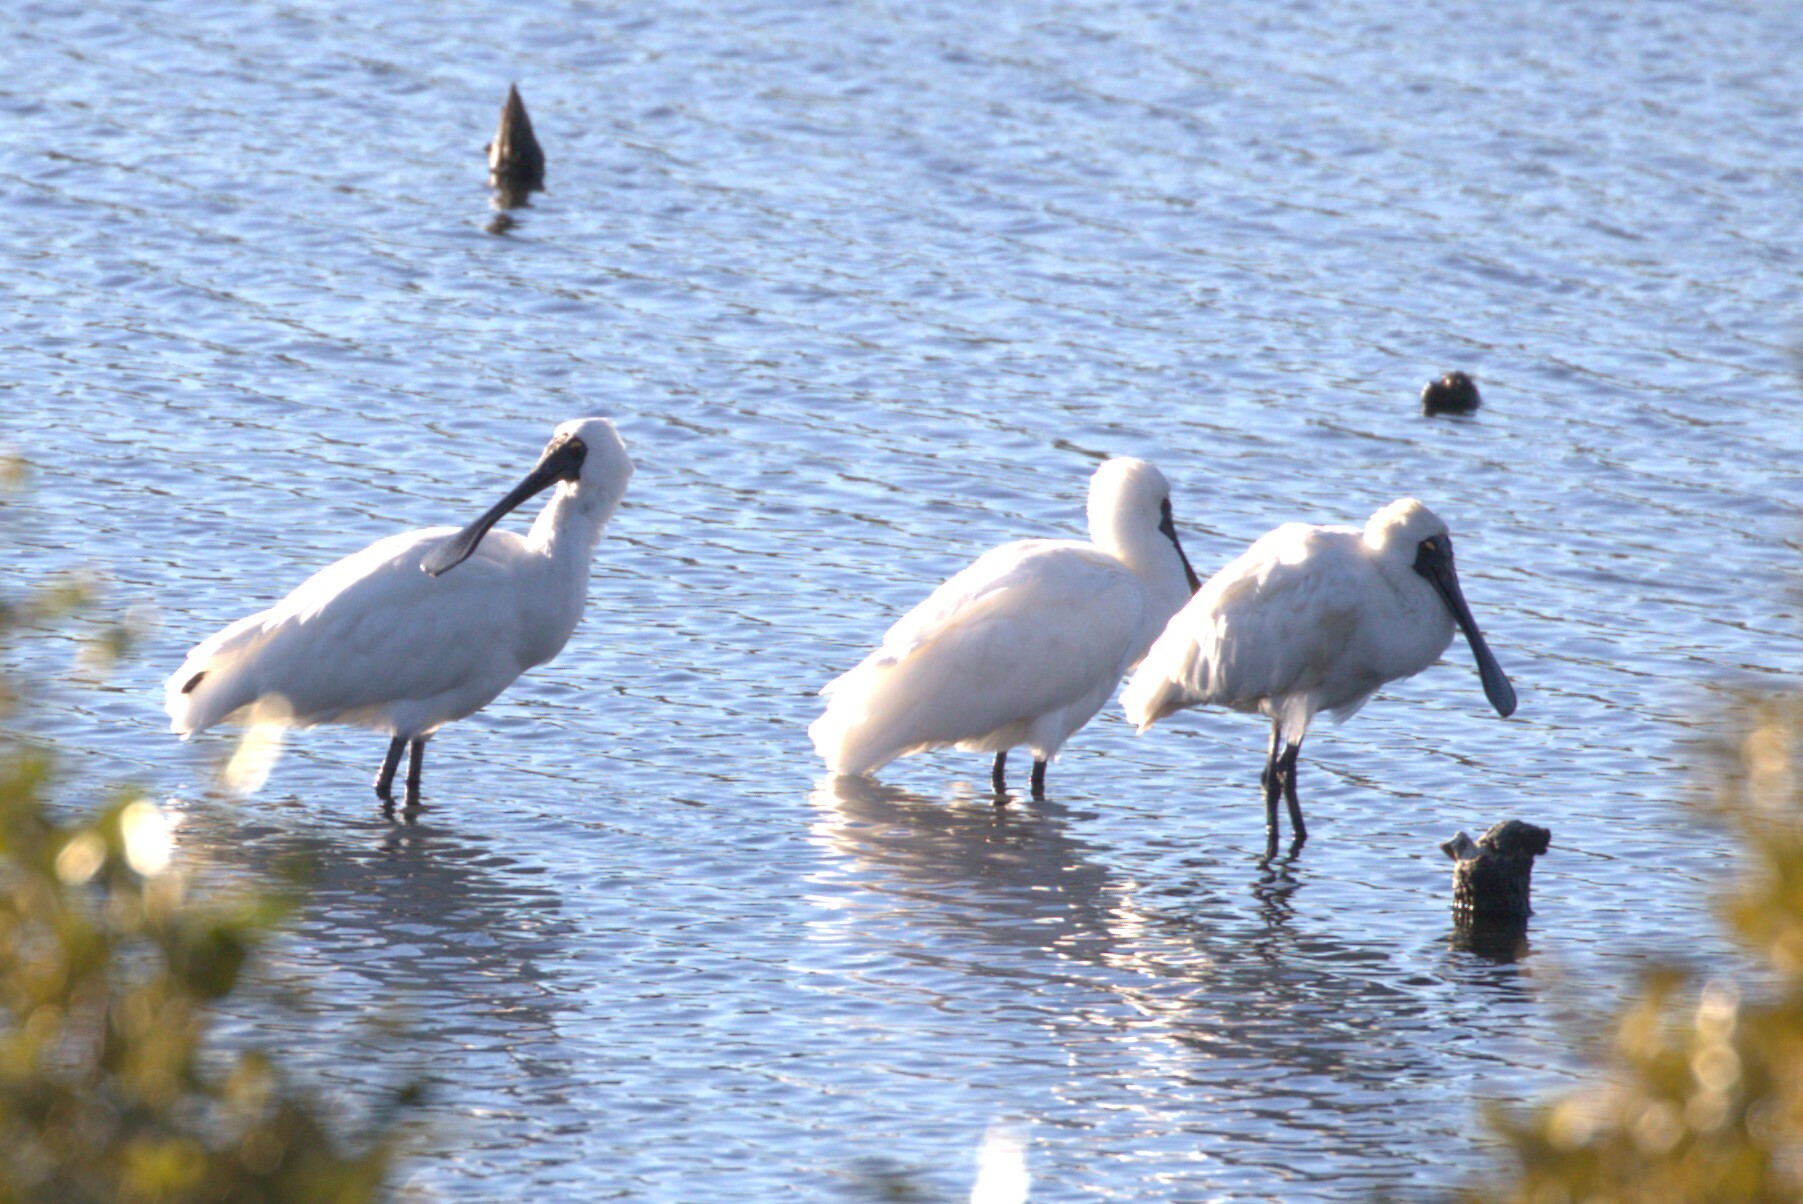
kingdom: Animalia
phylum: Chordata
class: Aves
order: Pelecaniformes
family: Threskiornithidae
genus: Platalea
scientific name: Platalea regia
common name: Royal spoonbill
